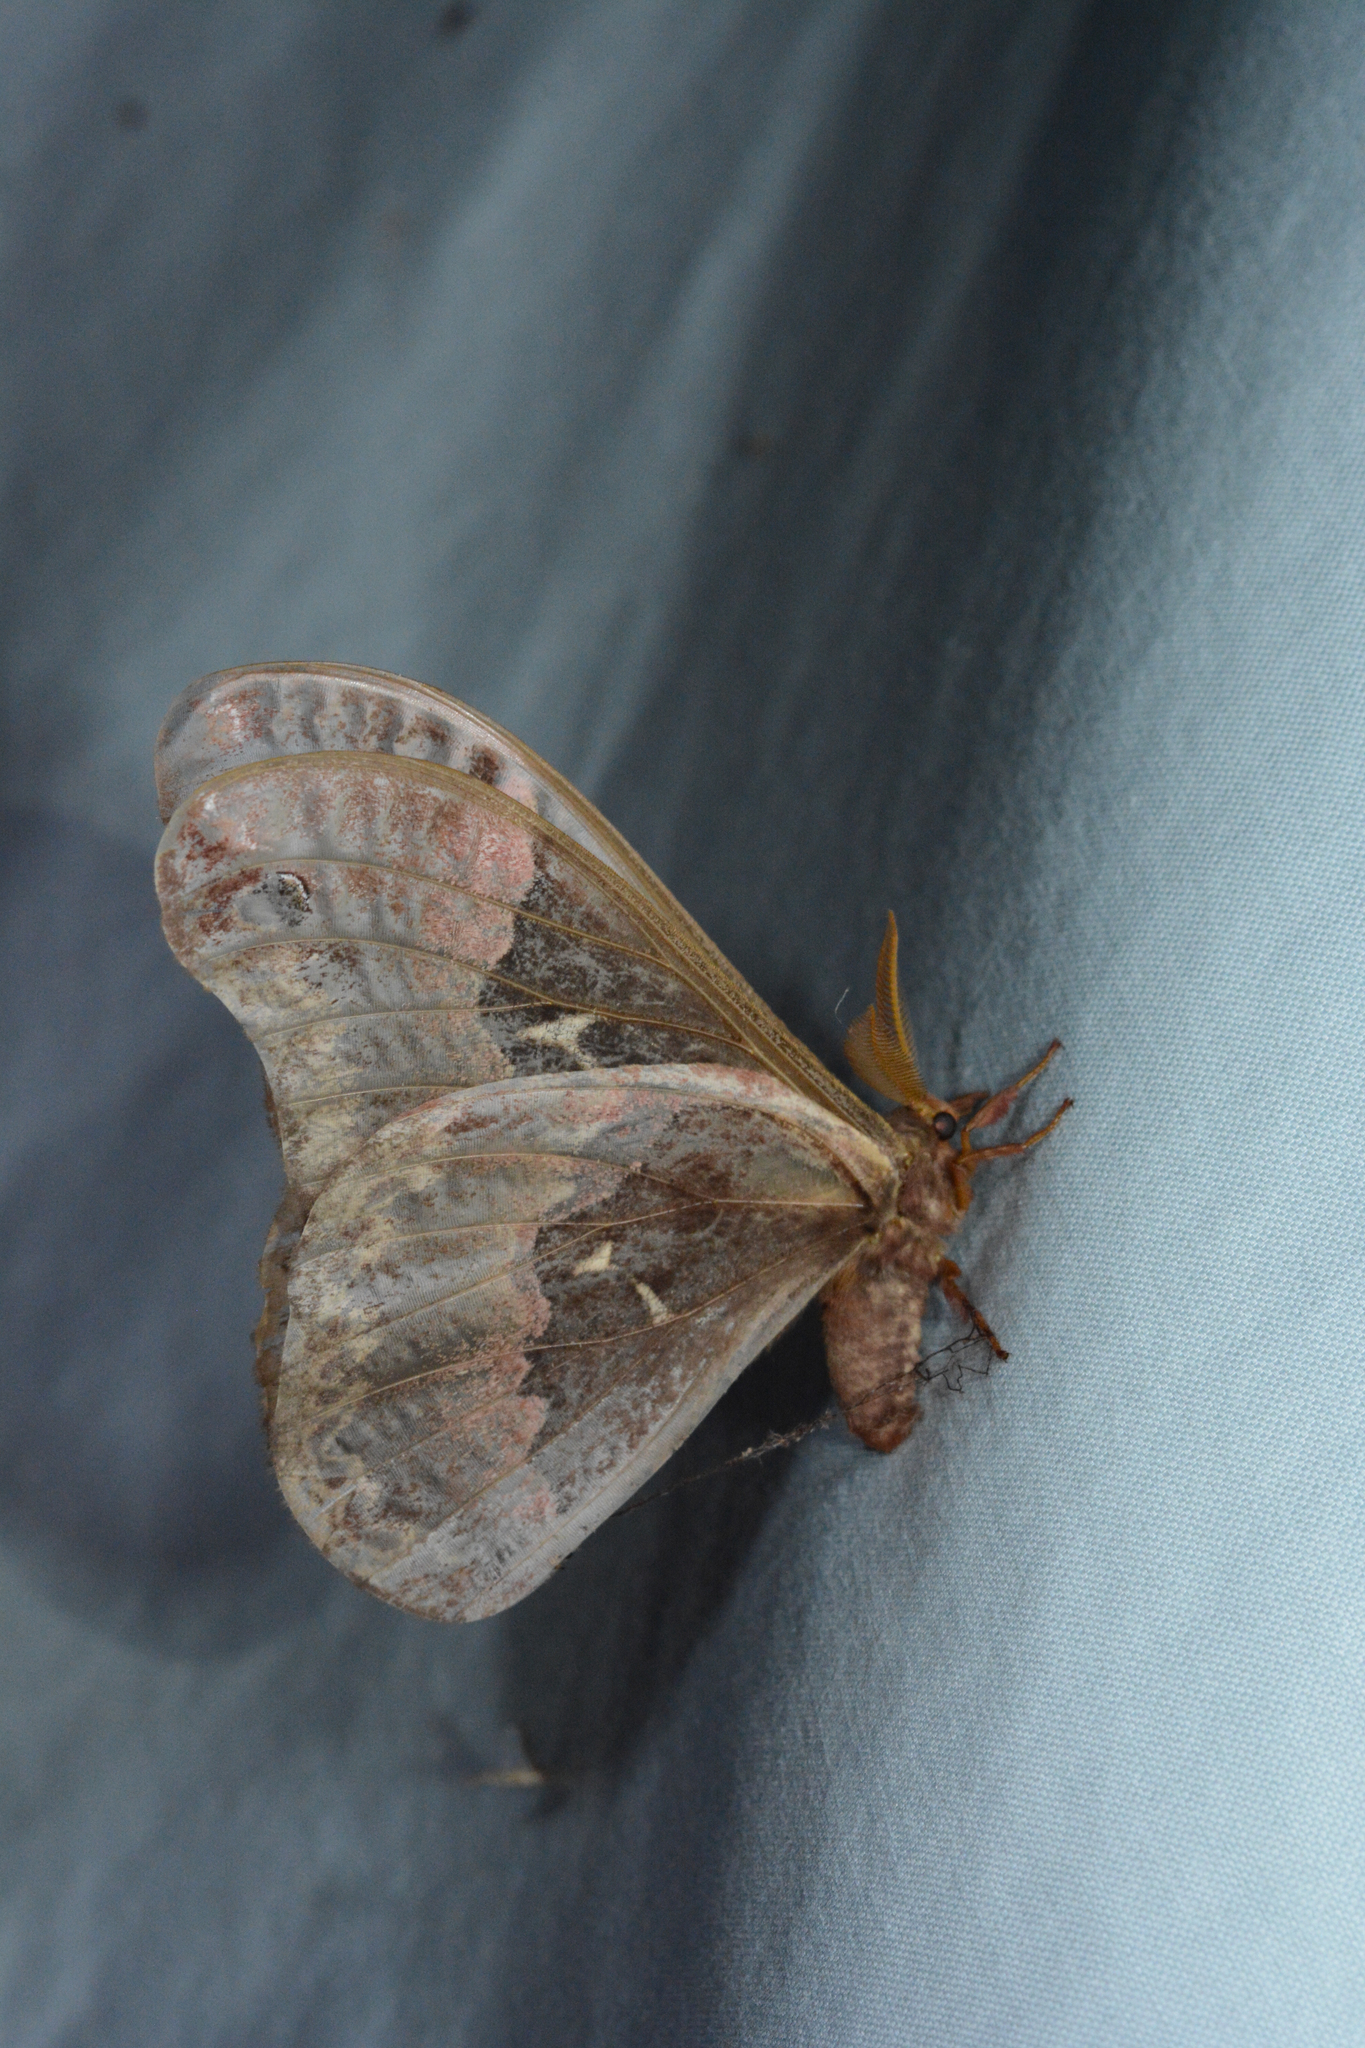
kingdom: Animalia
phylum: Arthropoda
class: Insecta
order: Lepidoptera
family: Saturniidae
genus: Callosamia
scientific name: Callosamia angulifera
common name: Tulip tree silkmoth
